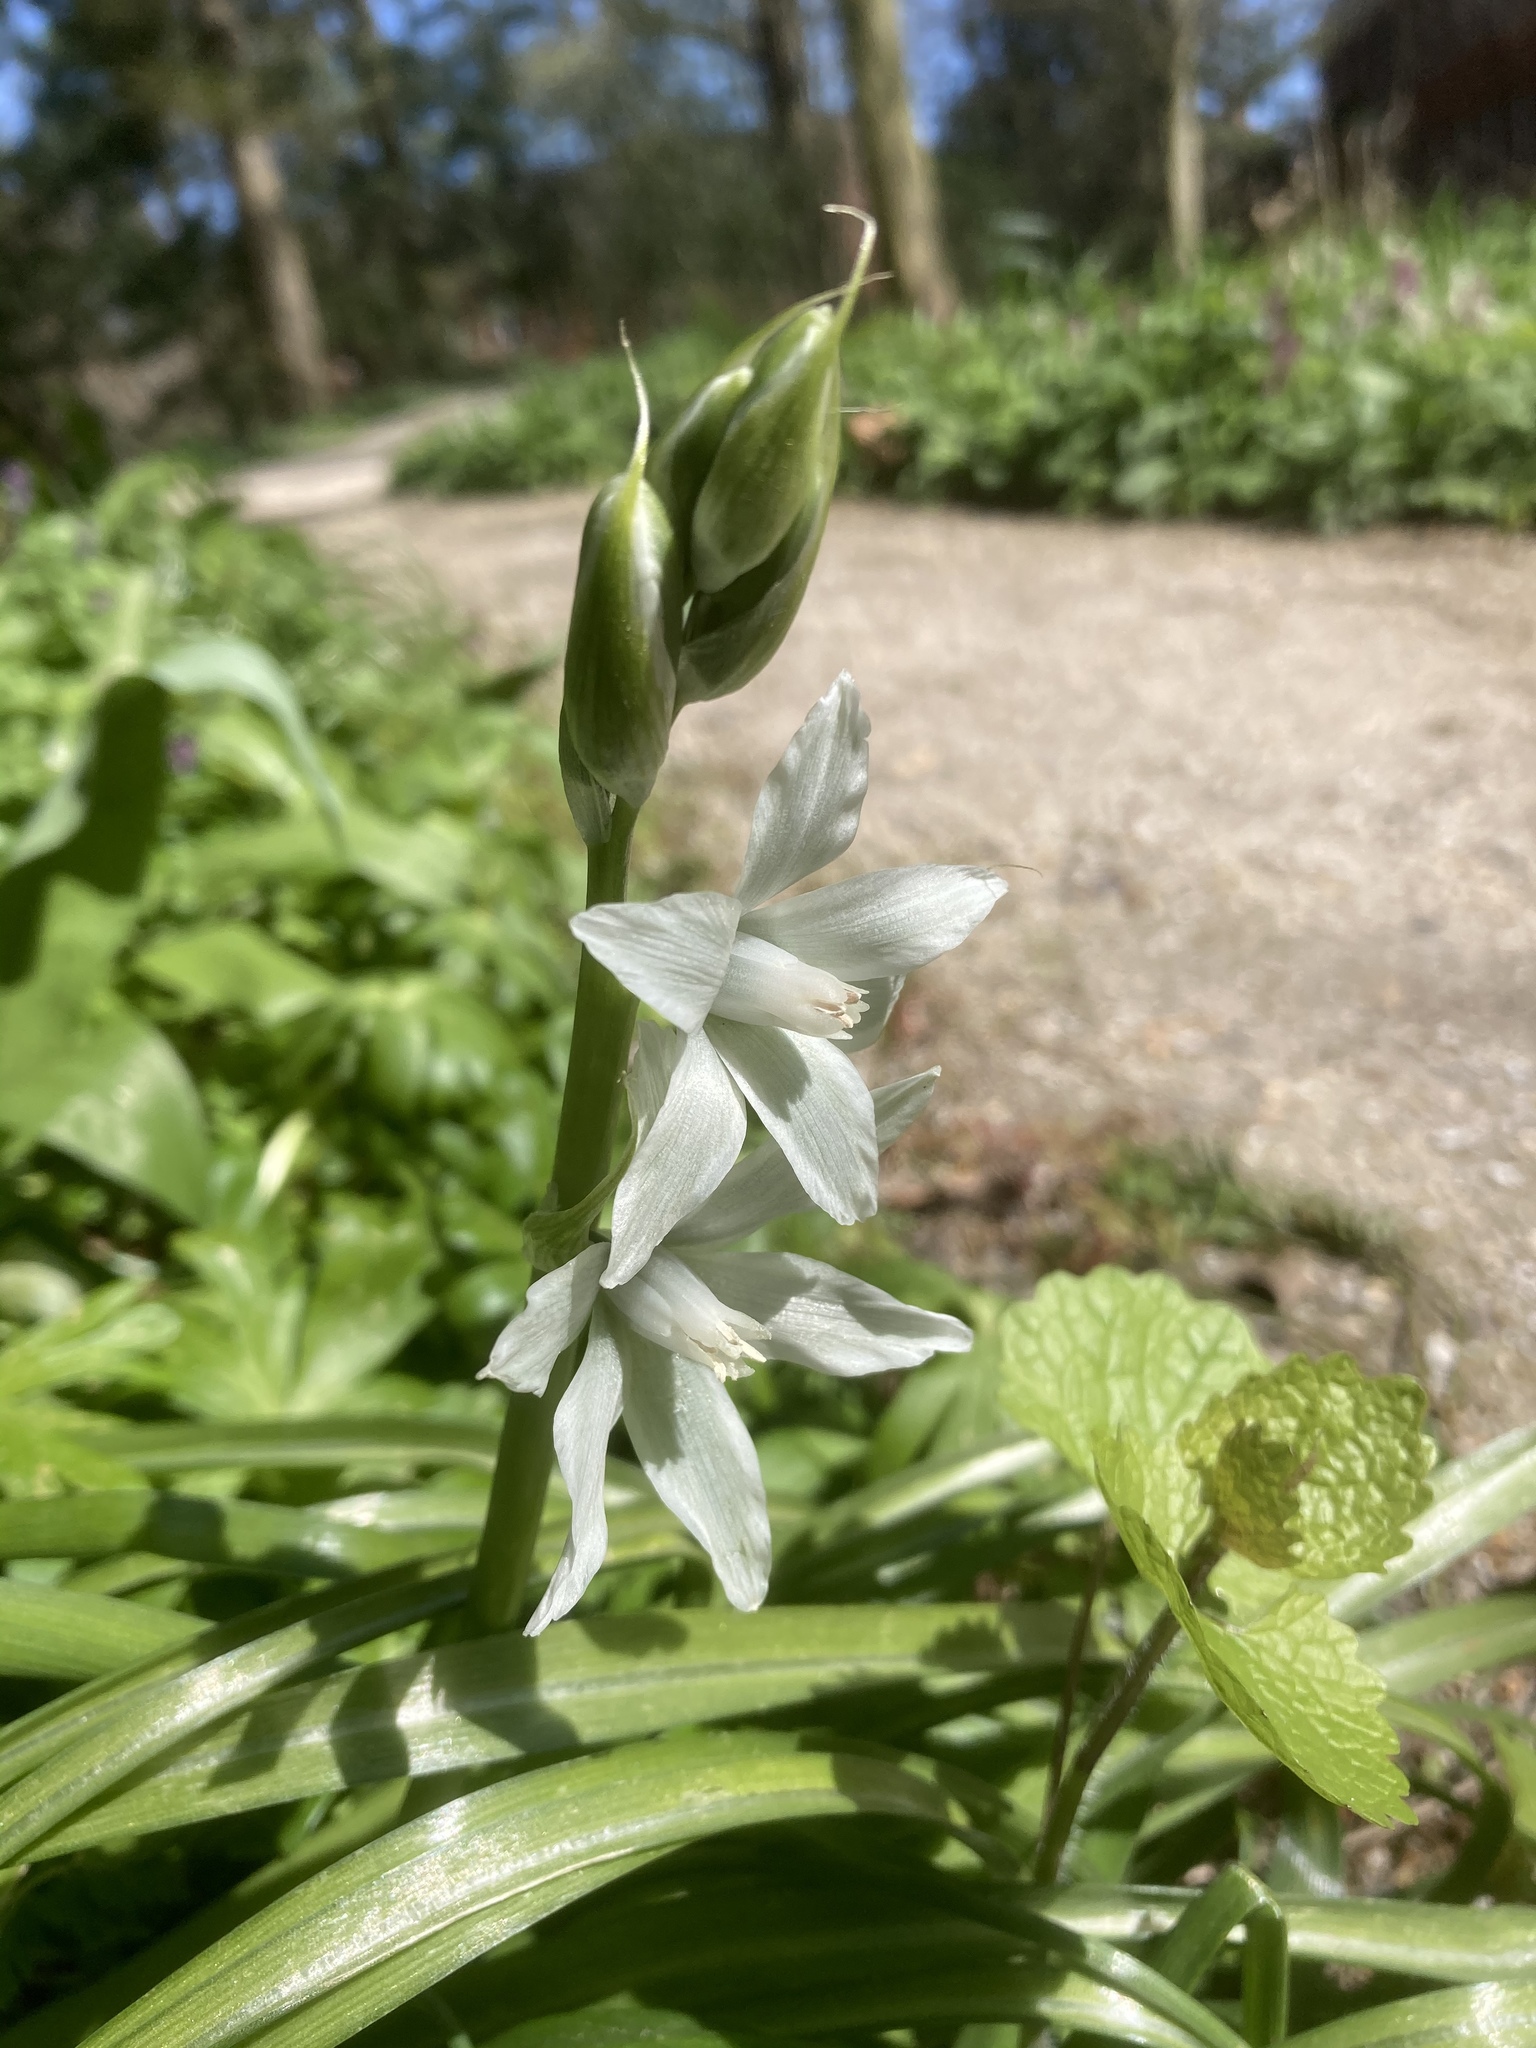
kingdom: Plantae
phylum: Tracheophyta
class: Liliopsida
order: Asparagales
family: Asparagaceae
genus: Ornithogalum
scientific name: Ornithogalum nutans
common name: Drooping star-of-bethlehem
